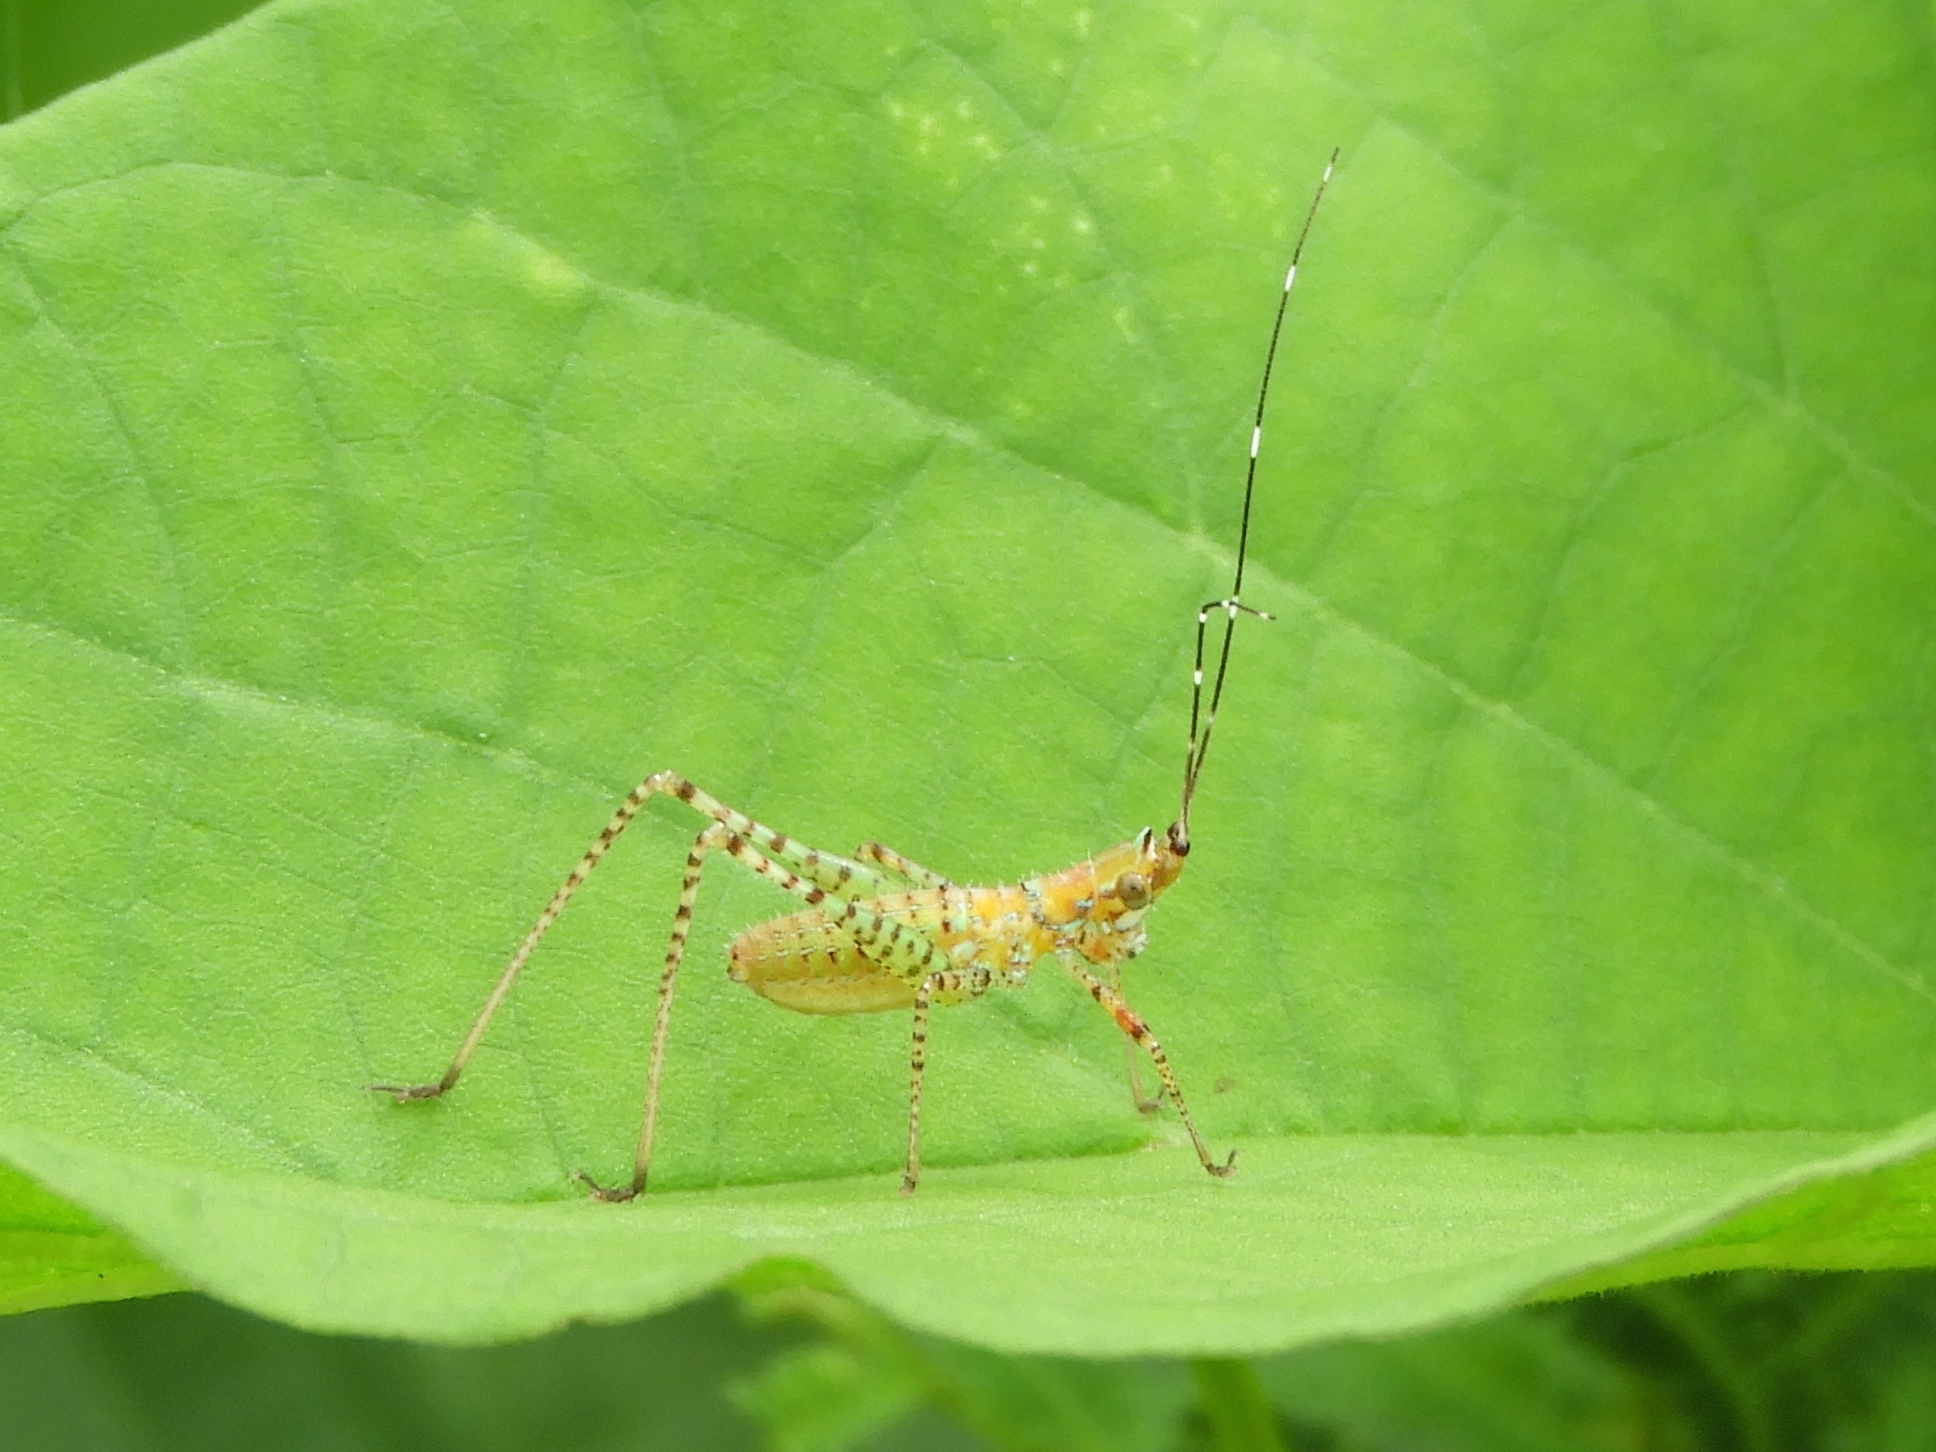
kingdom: Animalia
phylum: Arthropoda
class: Insecta
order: Orthoptera
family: Tettigoniidae
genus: Scudderia
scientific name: Scudderia
